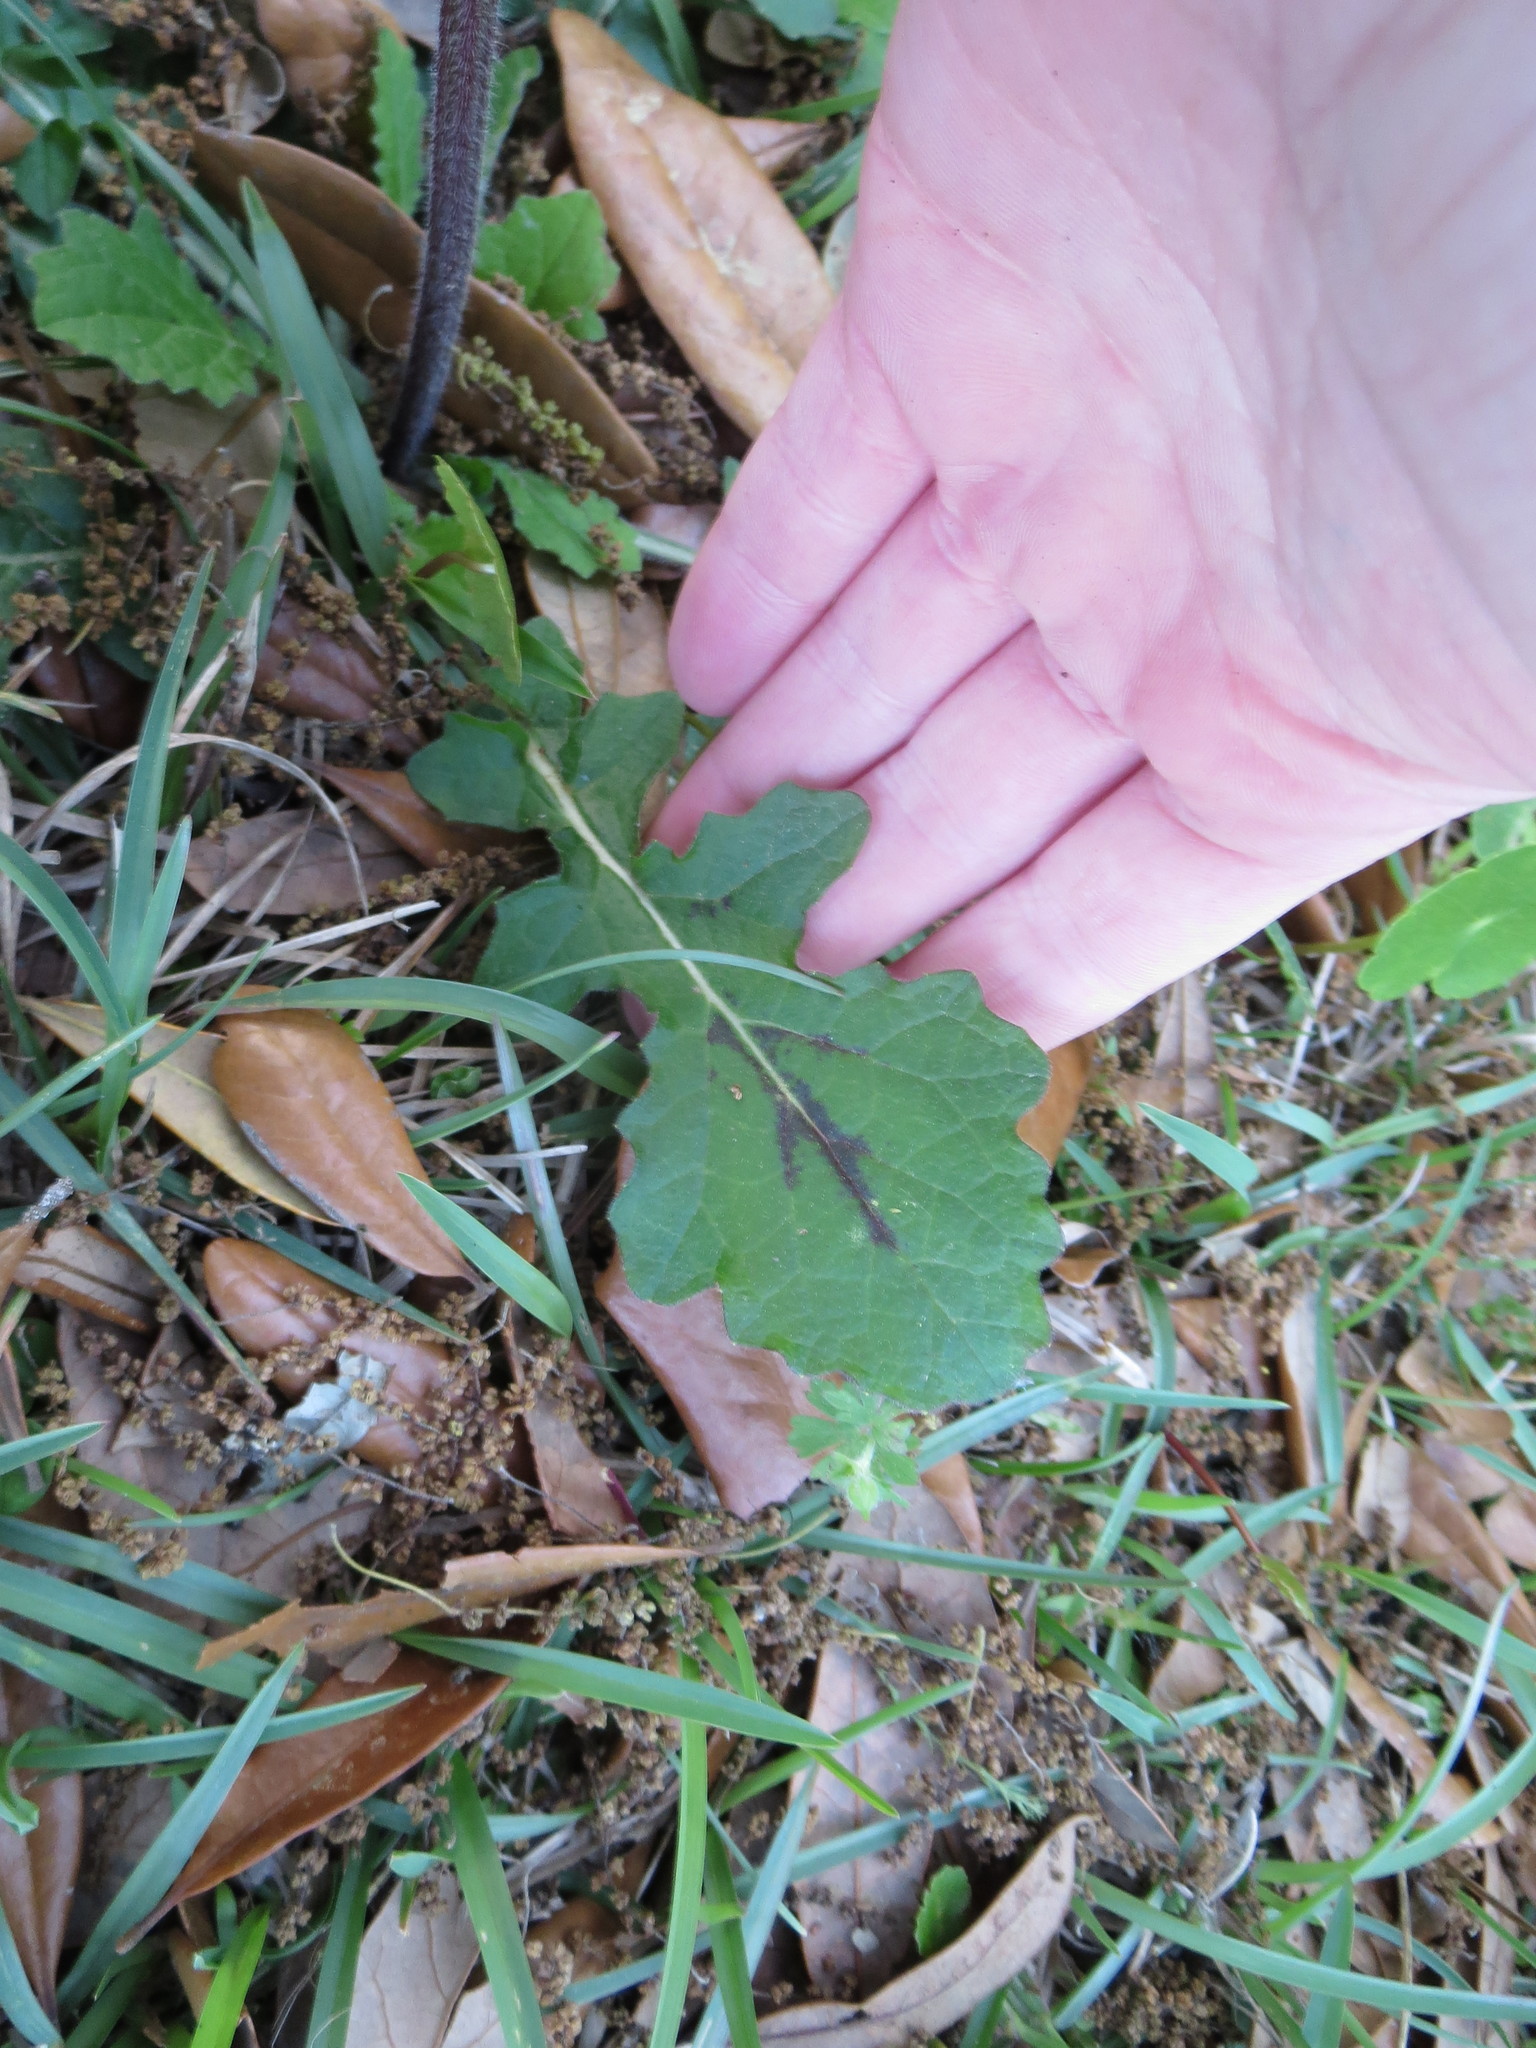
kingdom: Plantae
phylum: Tracheophyta
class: Magnoliopsida
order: Lamiales
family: Lamiaceae
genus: Salvia
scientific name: Salvia lyrata
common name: Cancerweed
